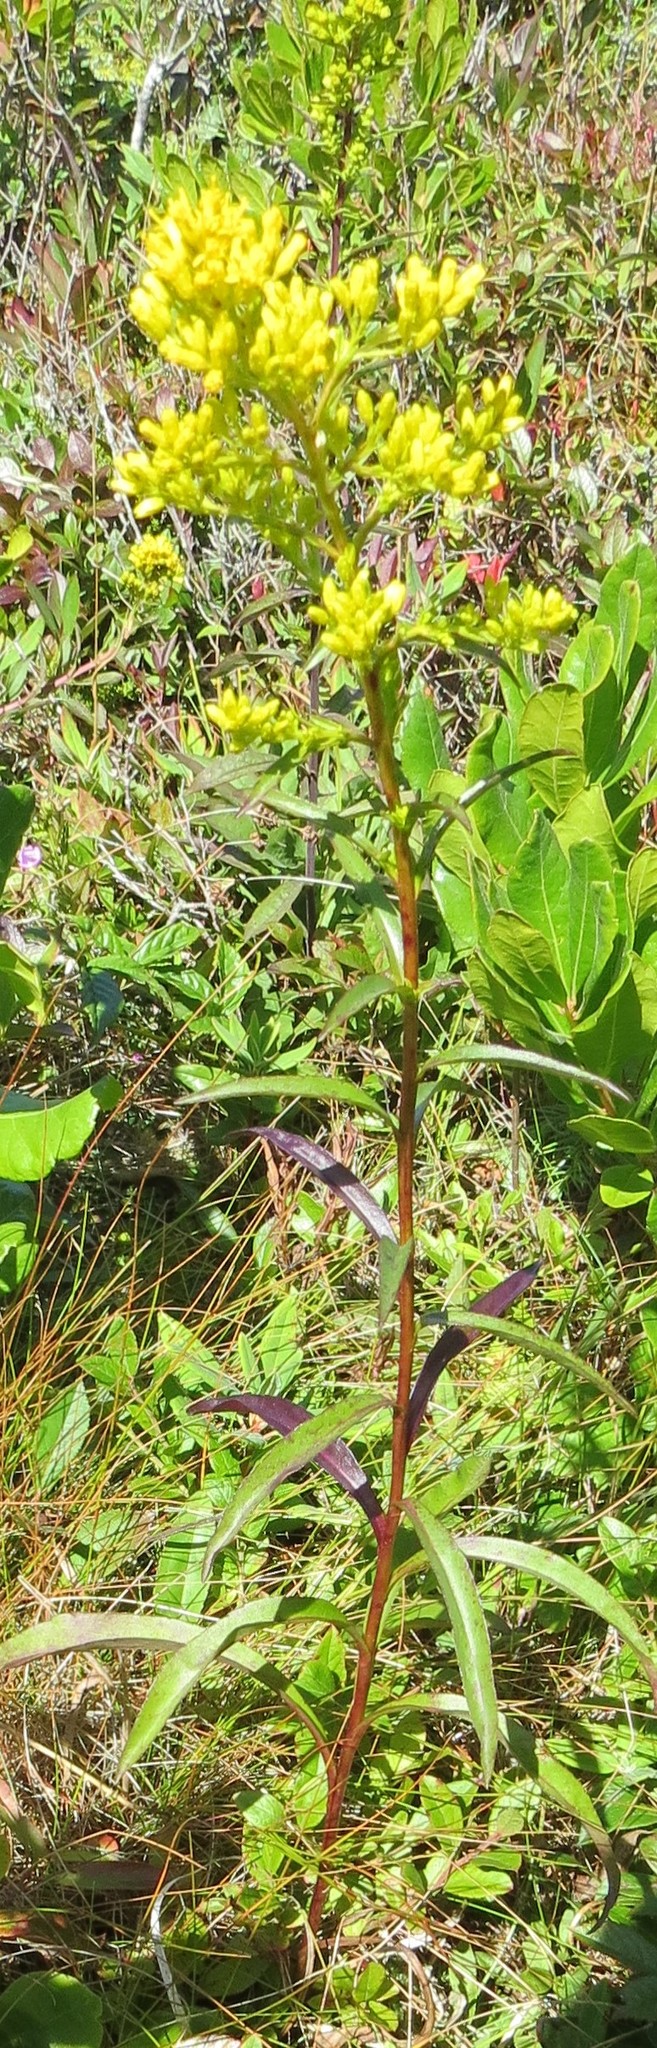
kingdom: Plantae
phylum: Tracheophyta
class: Magnoliopsida
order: Asterales
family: Asteraceae
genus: Solidago
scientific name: Solidago uliginosa
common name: Bog goldenrod
